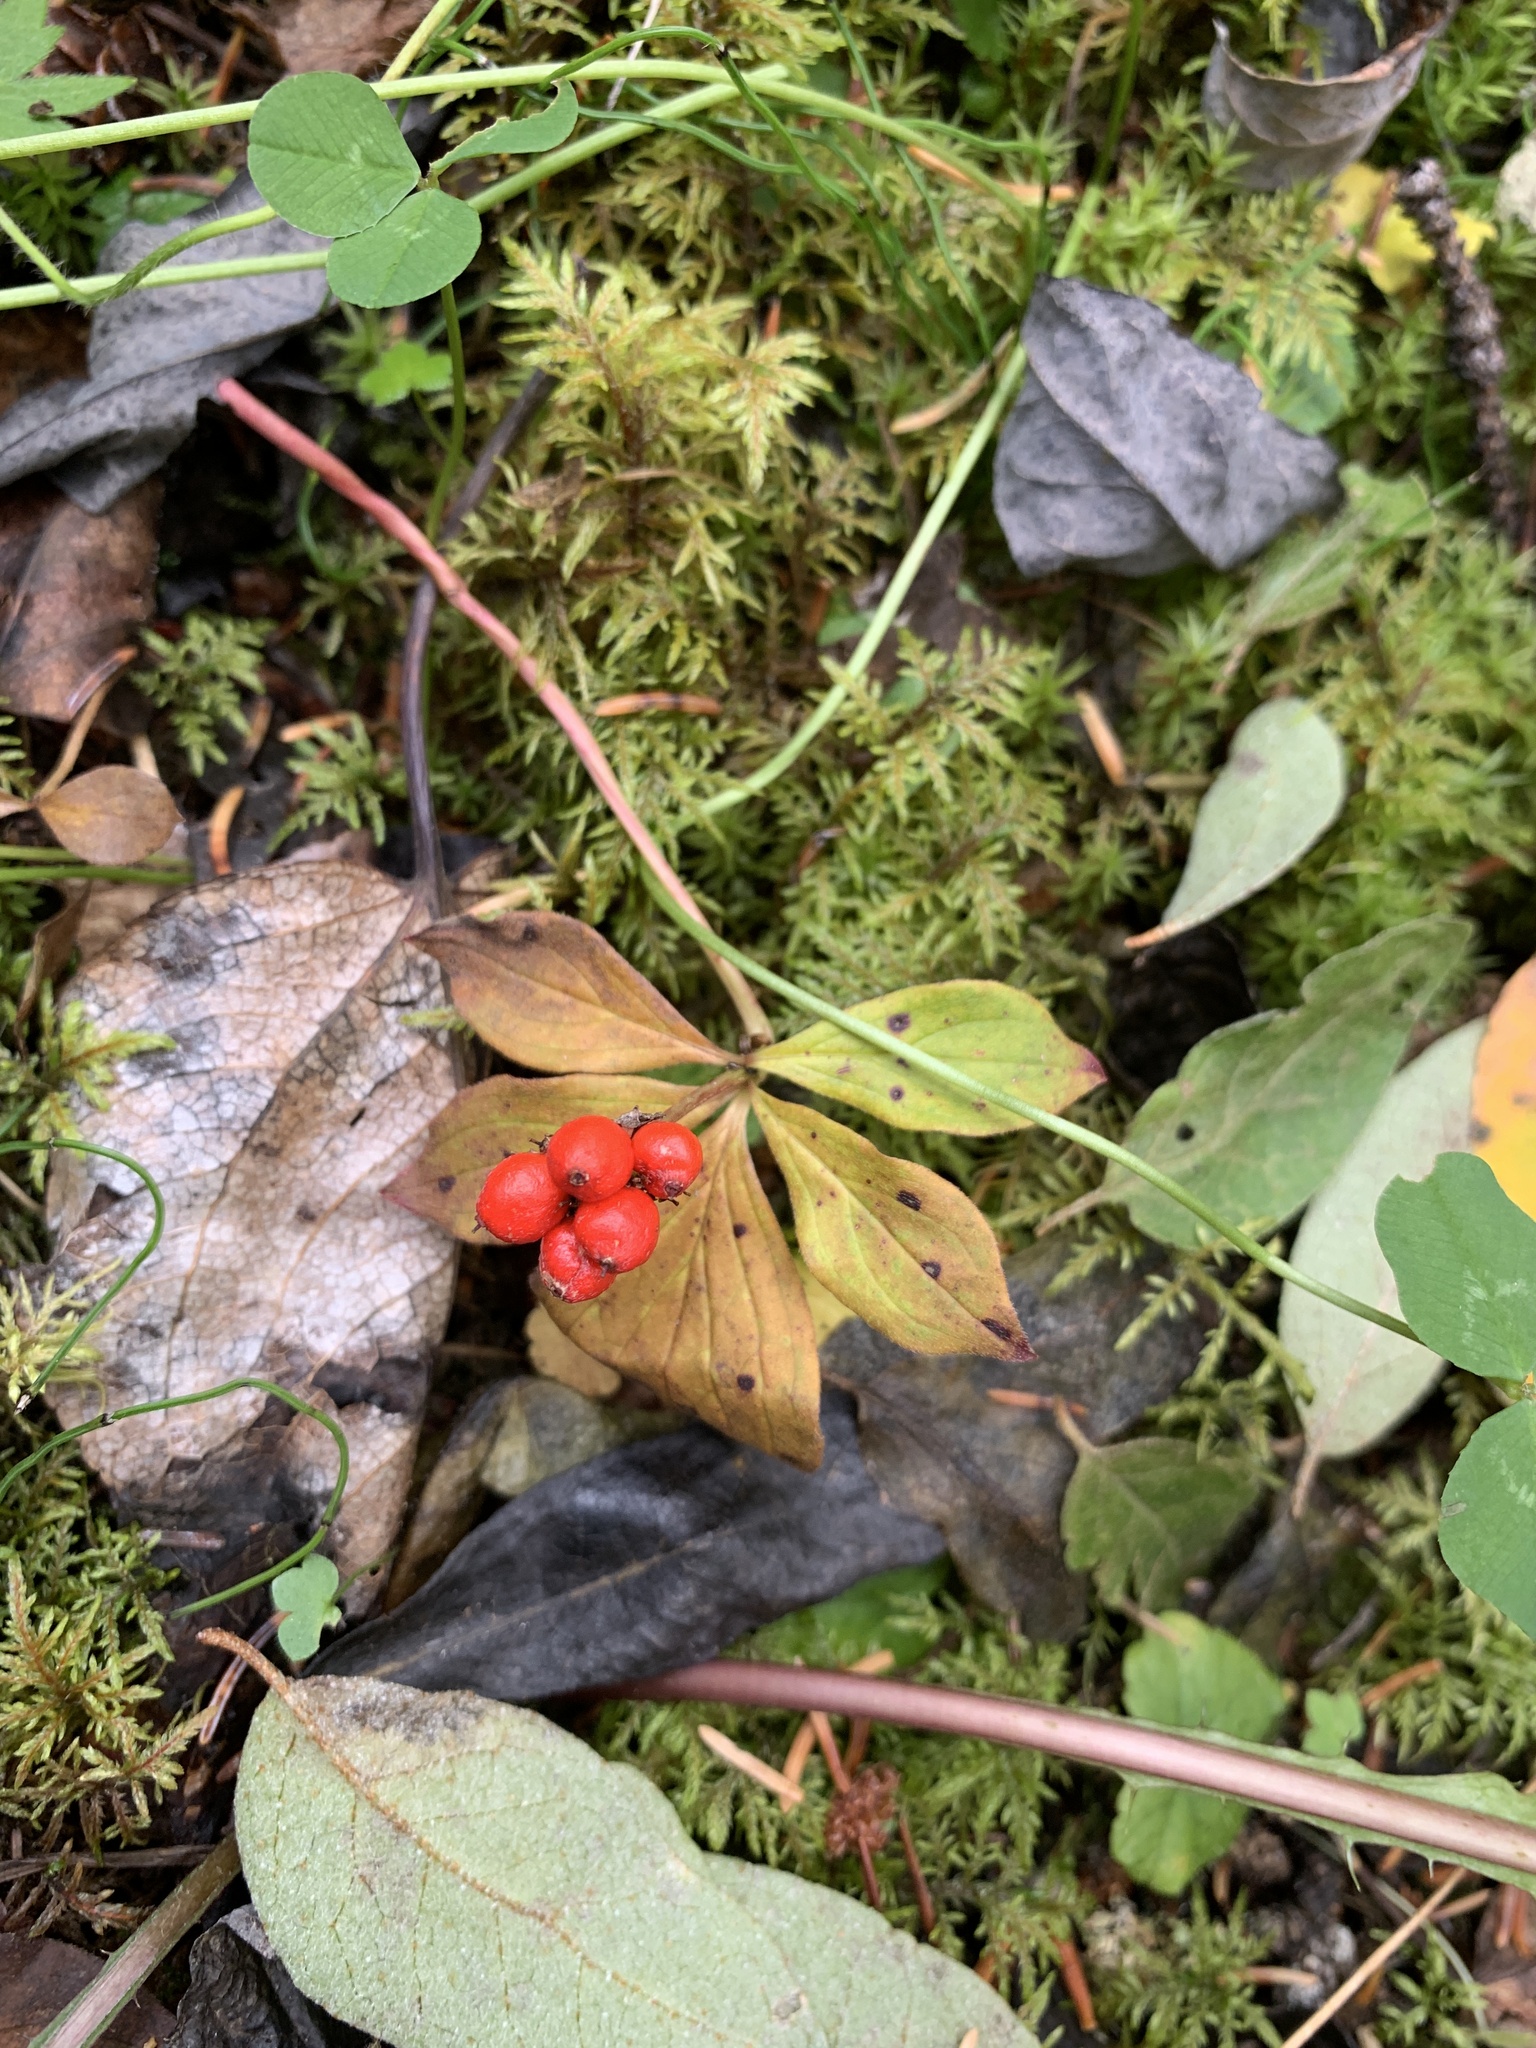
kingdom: Plantae
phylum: Tracheophyta
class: Magnoliopsida
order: Cornales
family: Cornaceae
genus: Cornus
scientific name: Cornus canadensis
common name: Creeping dogwood
